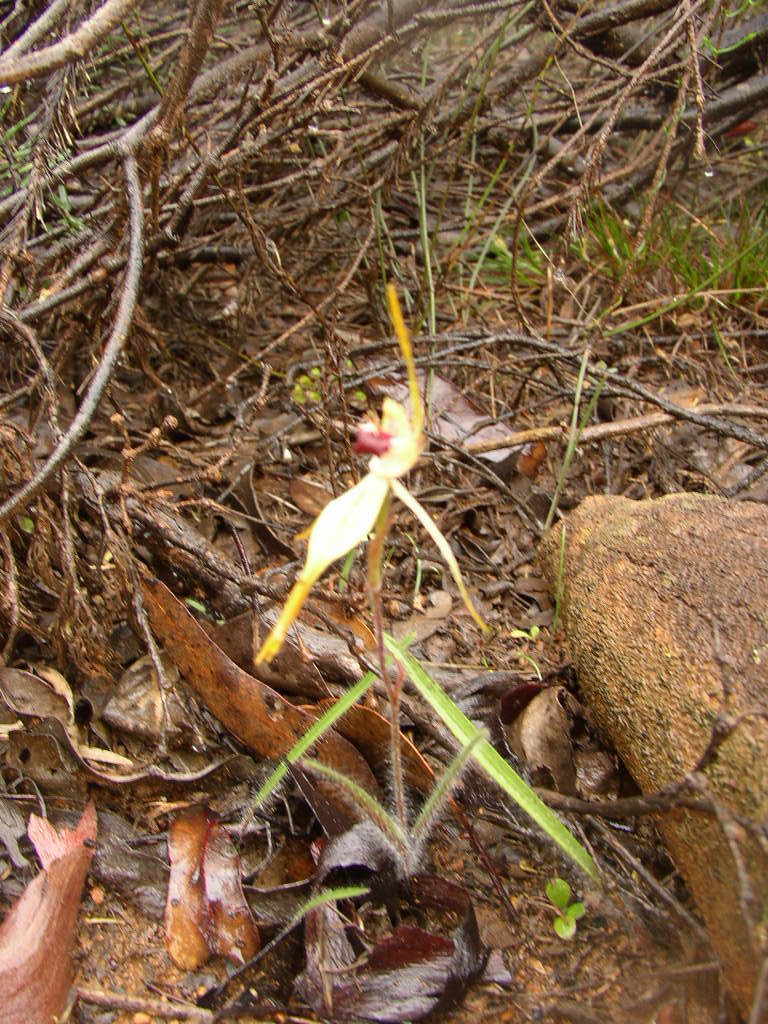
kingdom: Plantae
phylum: Tracheophyta
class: Liliopsida
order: Asparagales
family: Orchidaceae
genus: Caladenia
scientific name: Caladenia longiclavata
